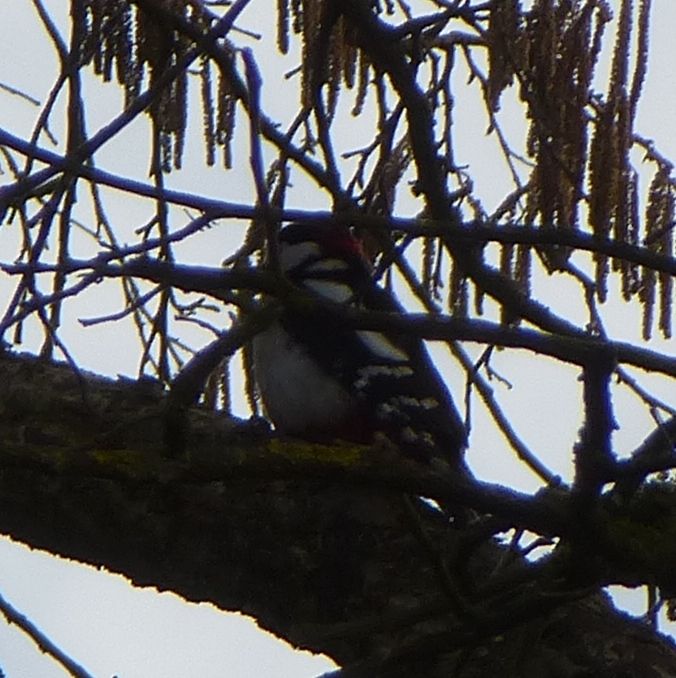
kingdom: Animalia
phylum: Chordata
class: Aves
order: Piciformes
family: Picidae
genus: Dendrocopos
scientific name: Dendrocopos major
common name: Great spotted woodpecker
